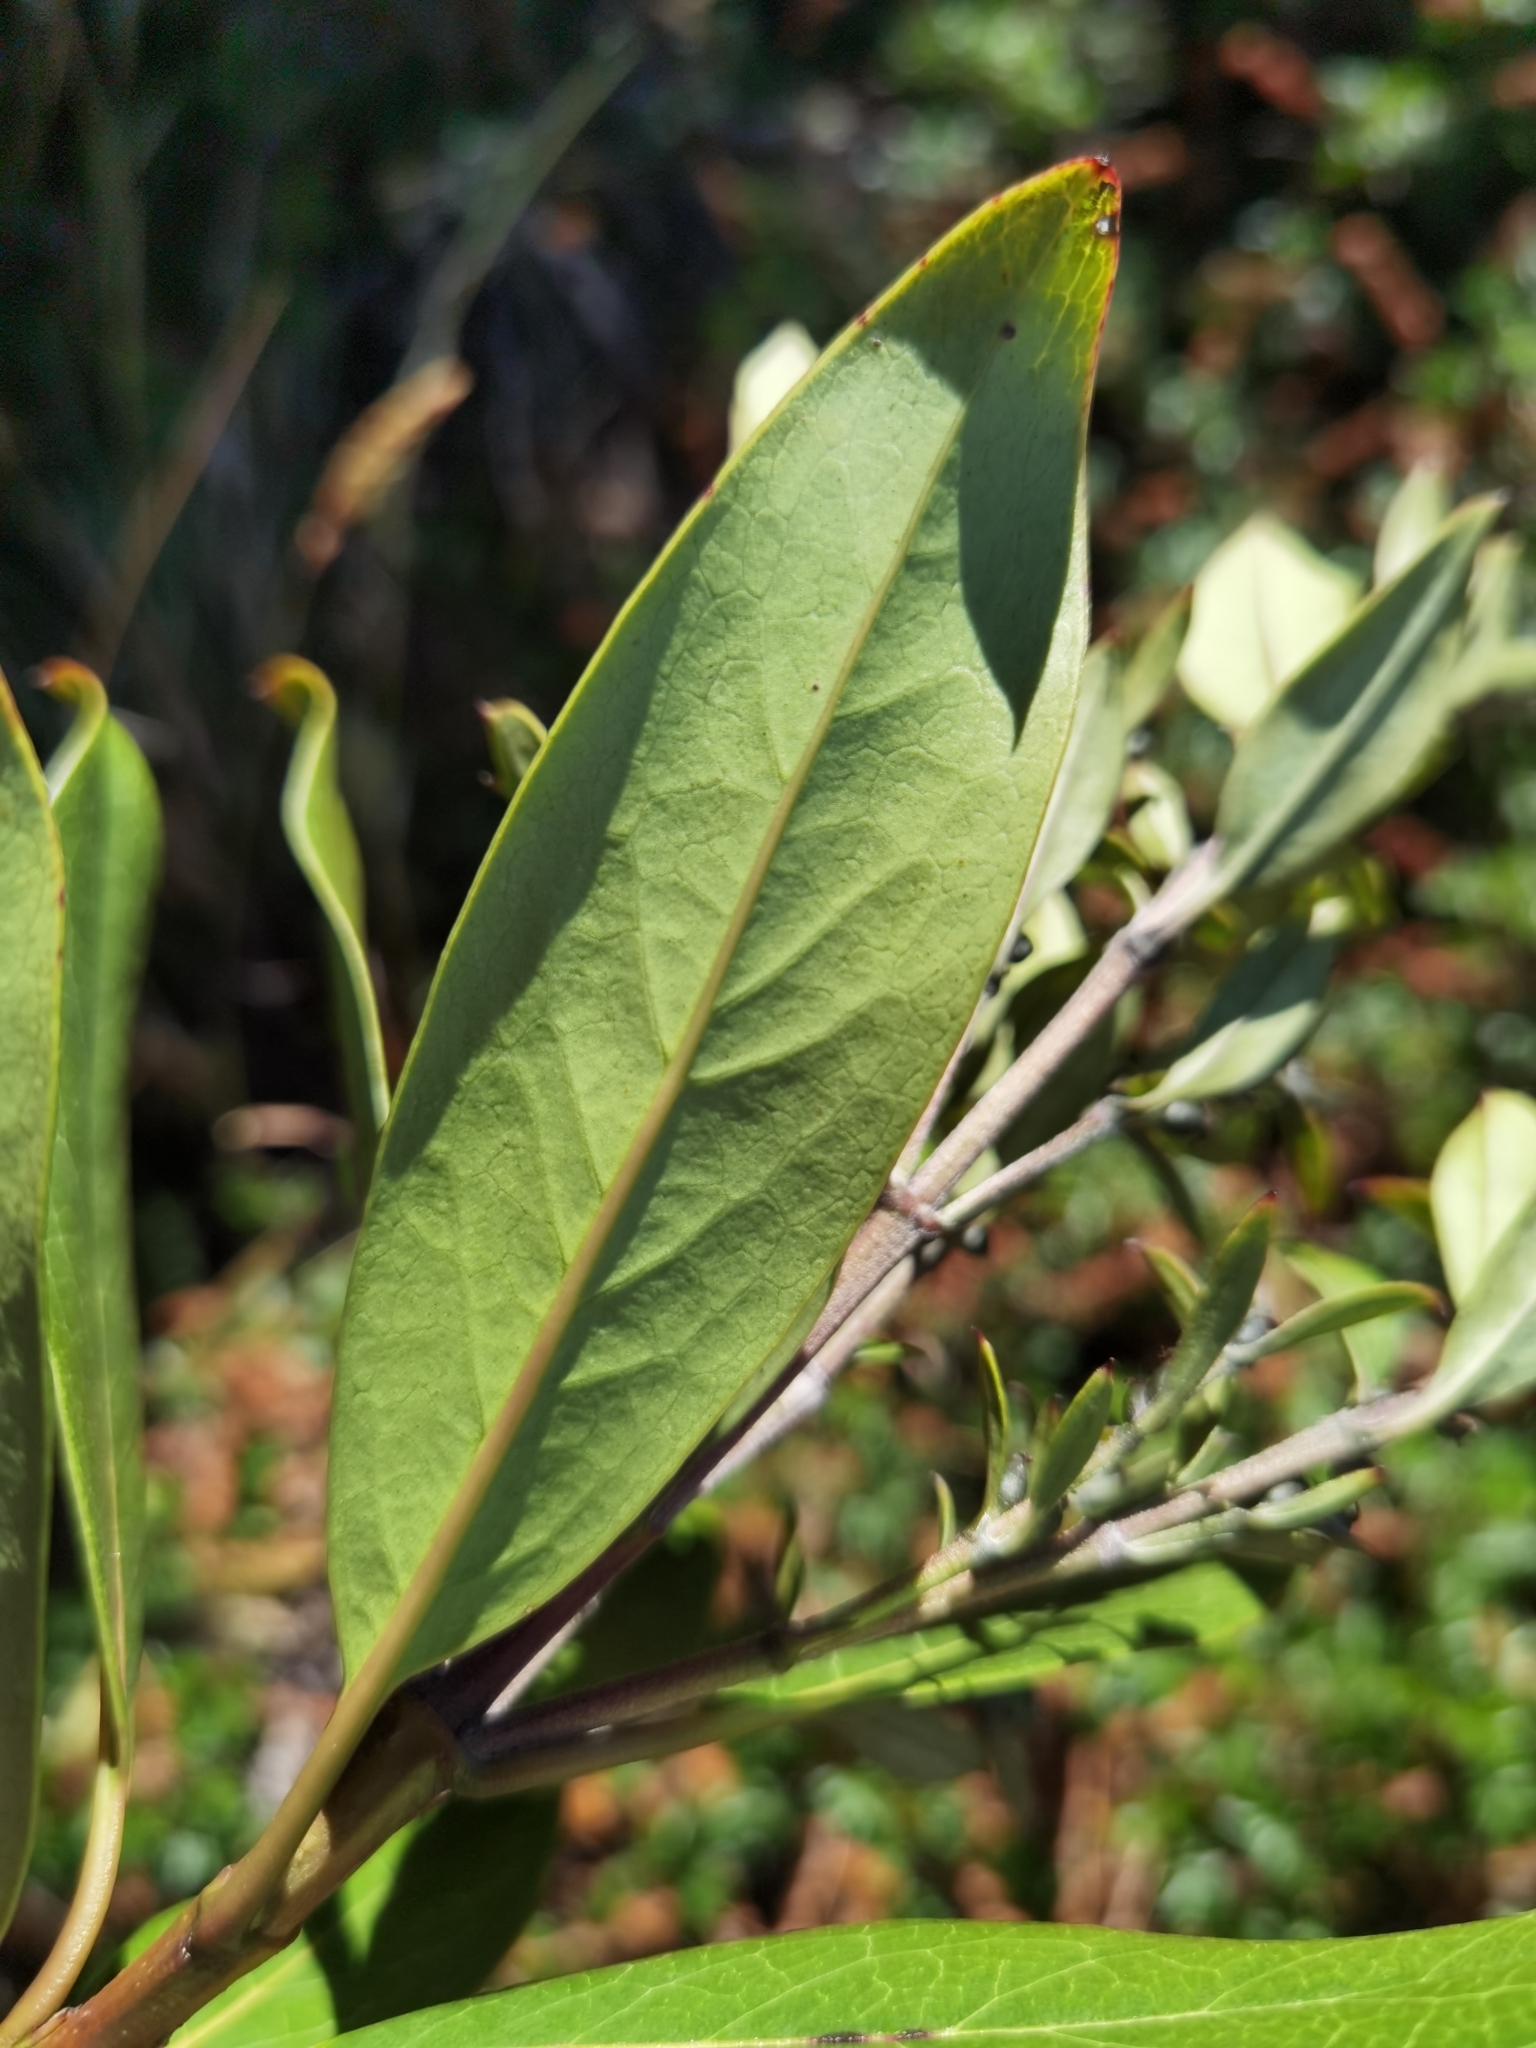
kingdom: Plantae
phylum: Tracheophyta
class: Magnoliopsida
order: Garryales
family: Garryaceae
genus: Garrya
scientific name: Garrya laurifolia
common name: Cuachichic
